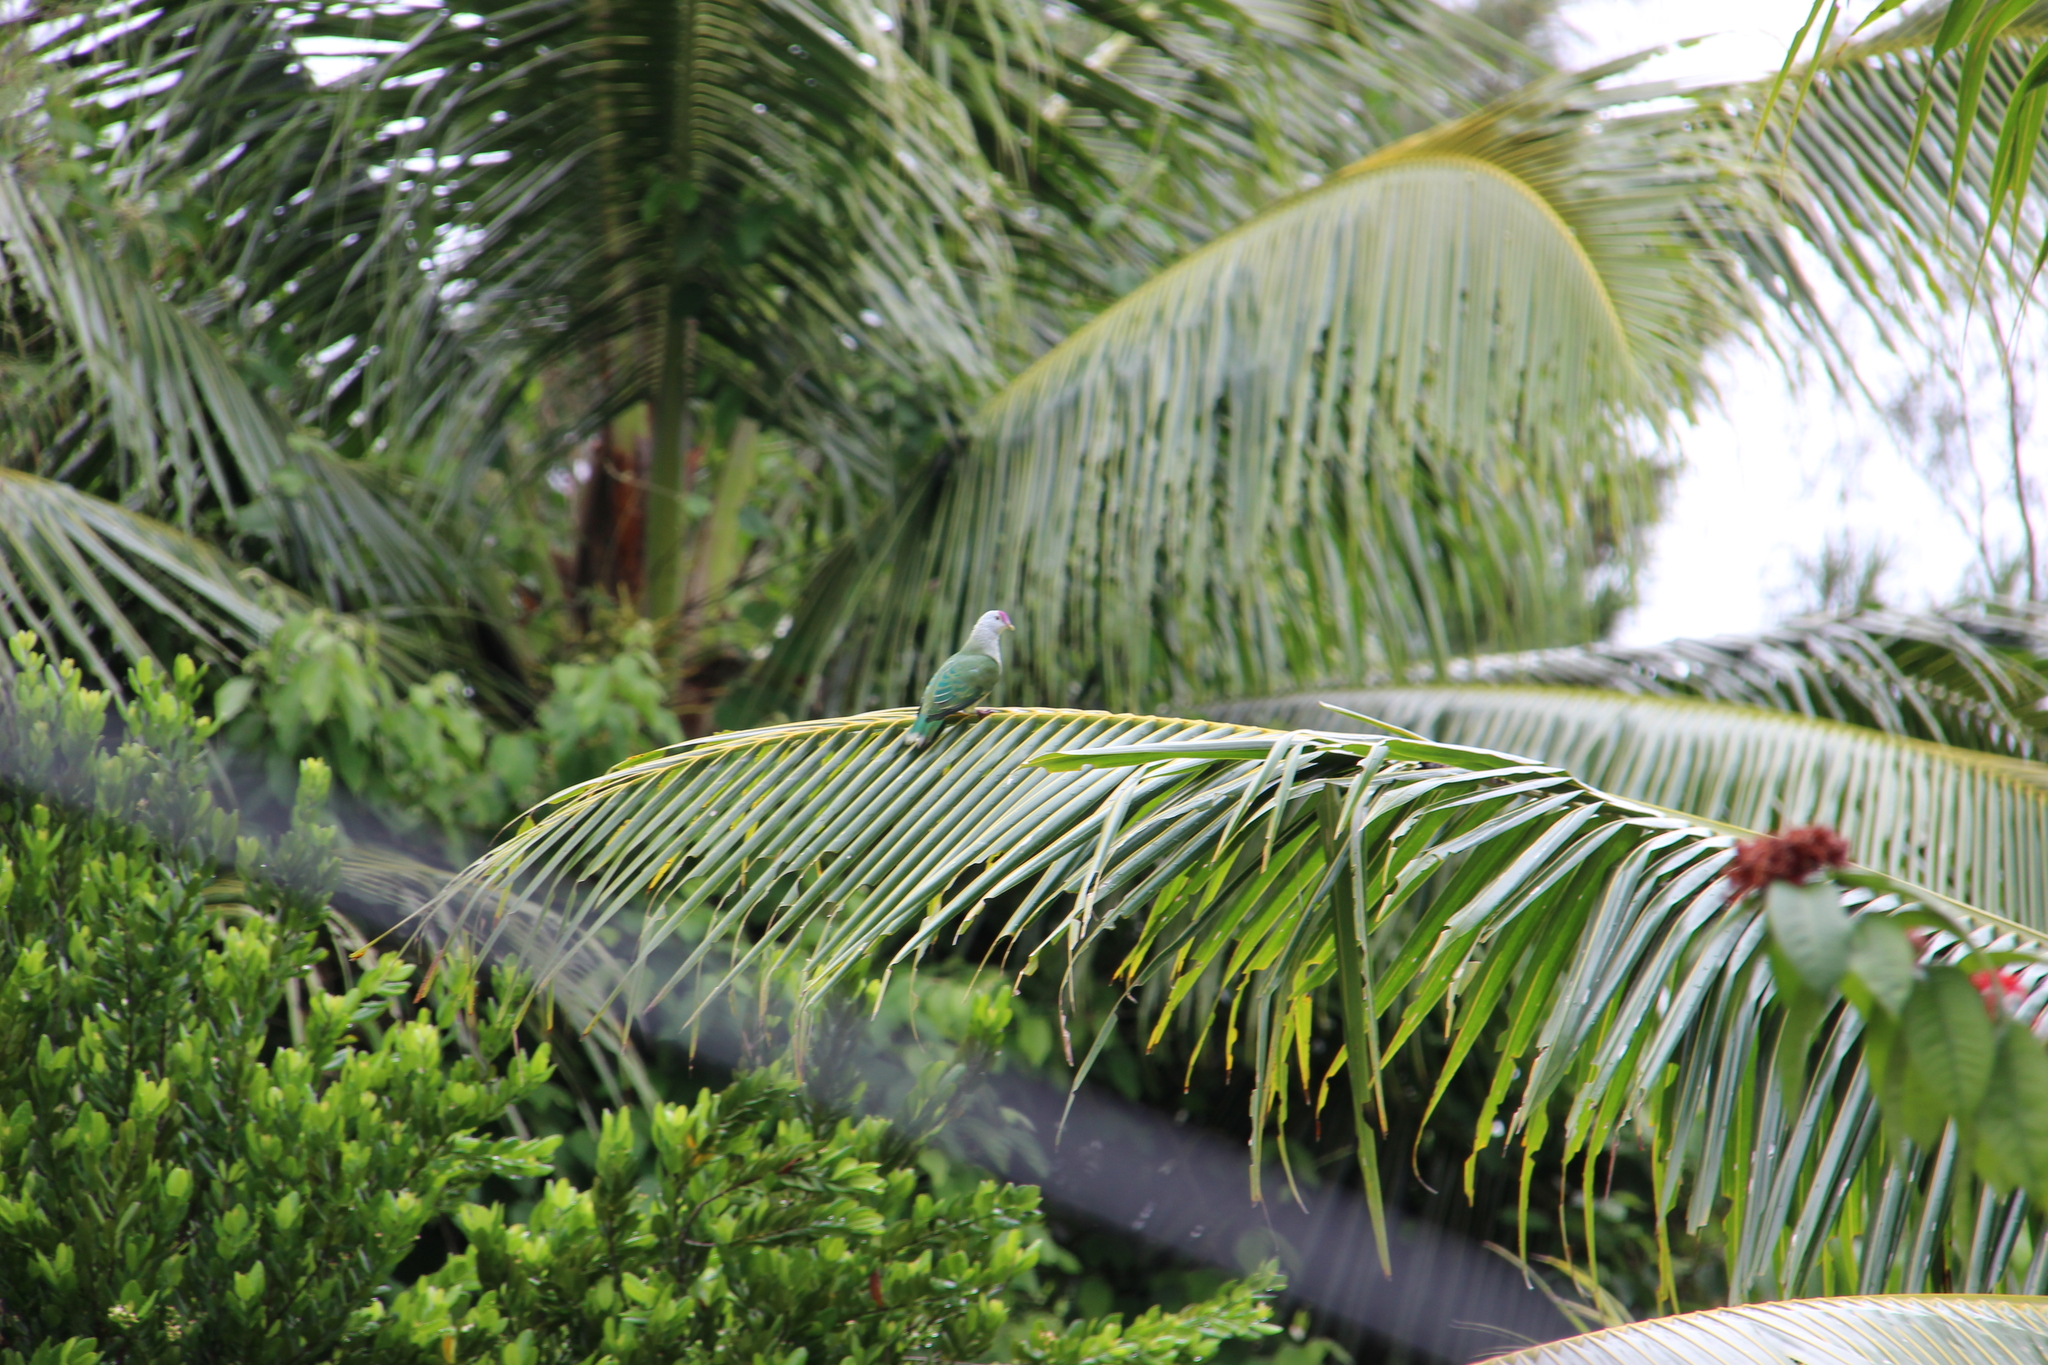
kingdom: Animalia
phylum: Chordata
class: Aves
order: Columbiformes
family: Columbidae
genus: Ptilinopus
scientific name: Ptilinopus rarotongensis
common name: Lilac-crowned fruit dove
